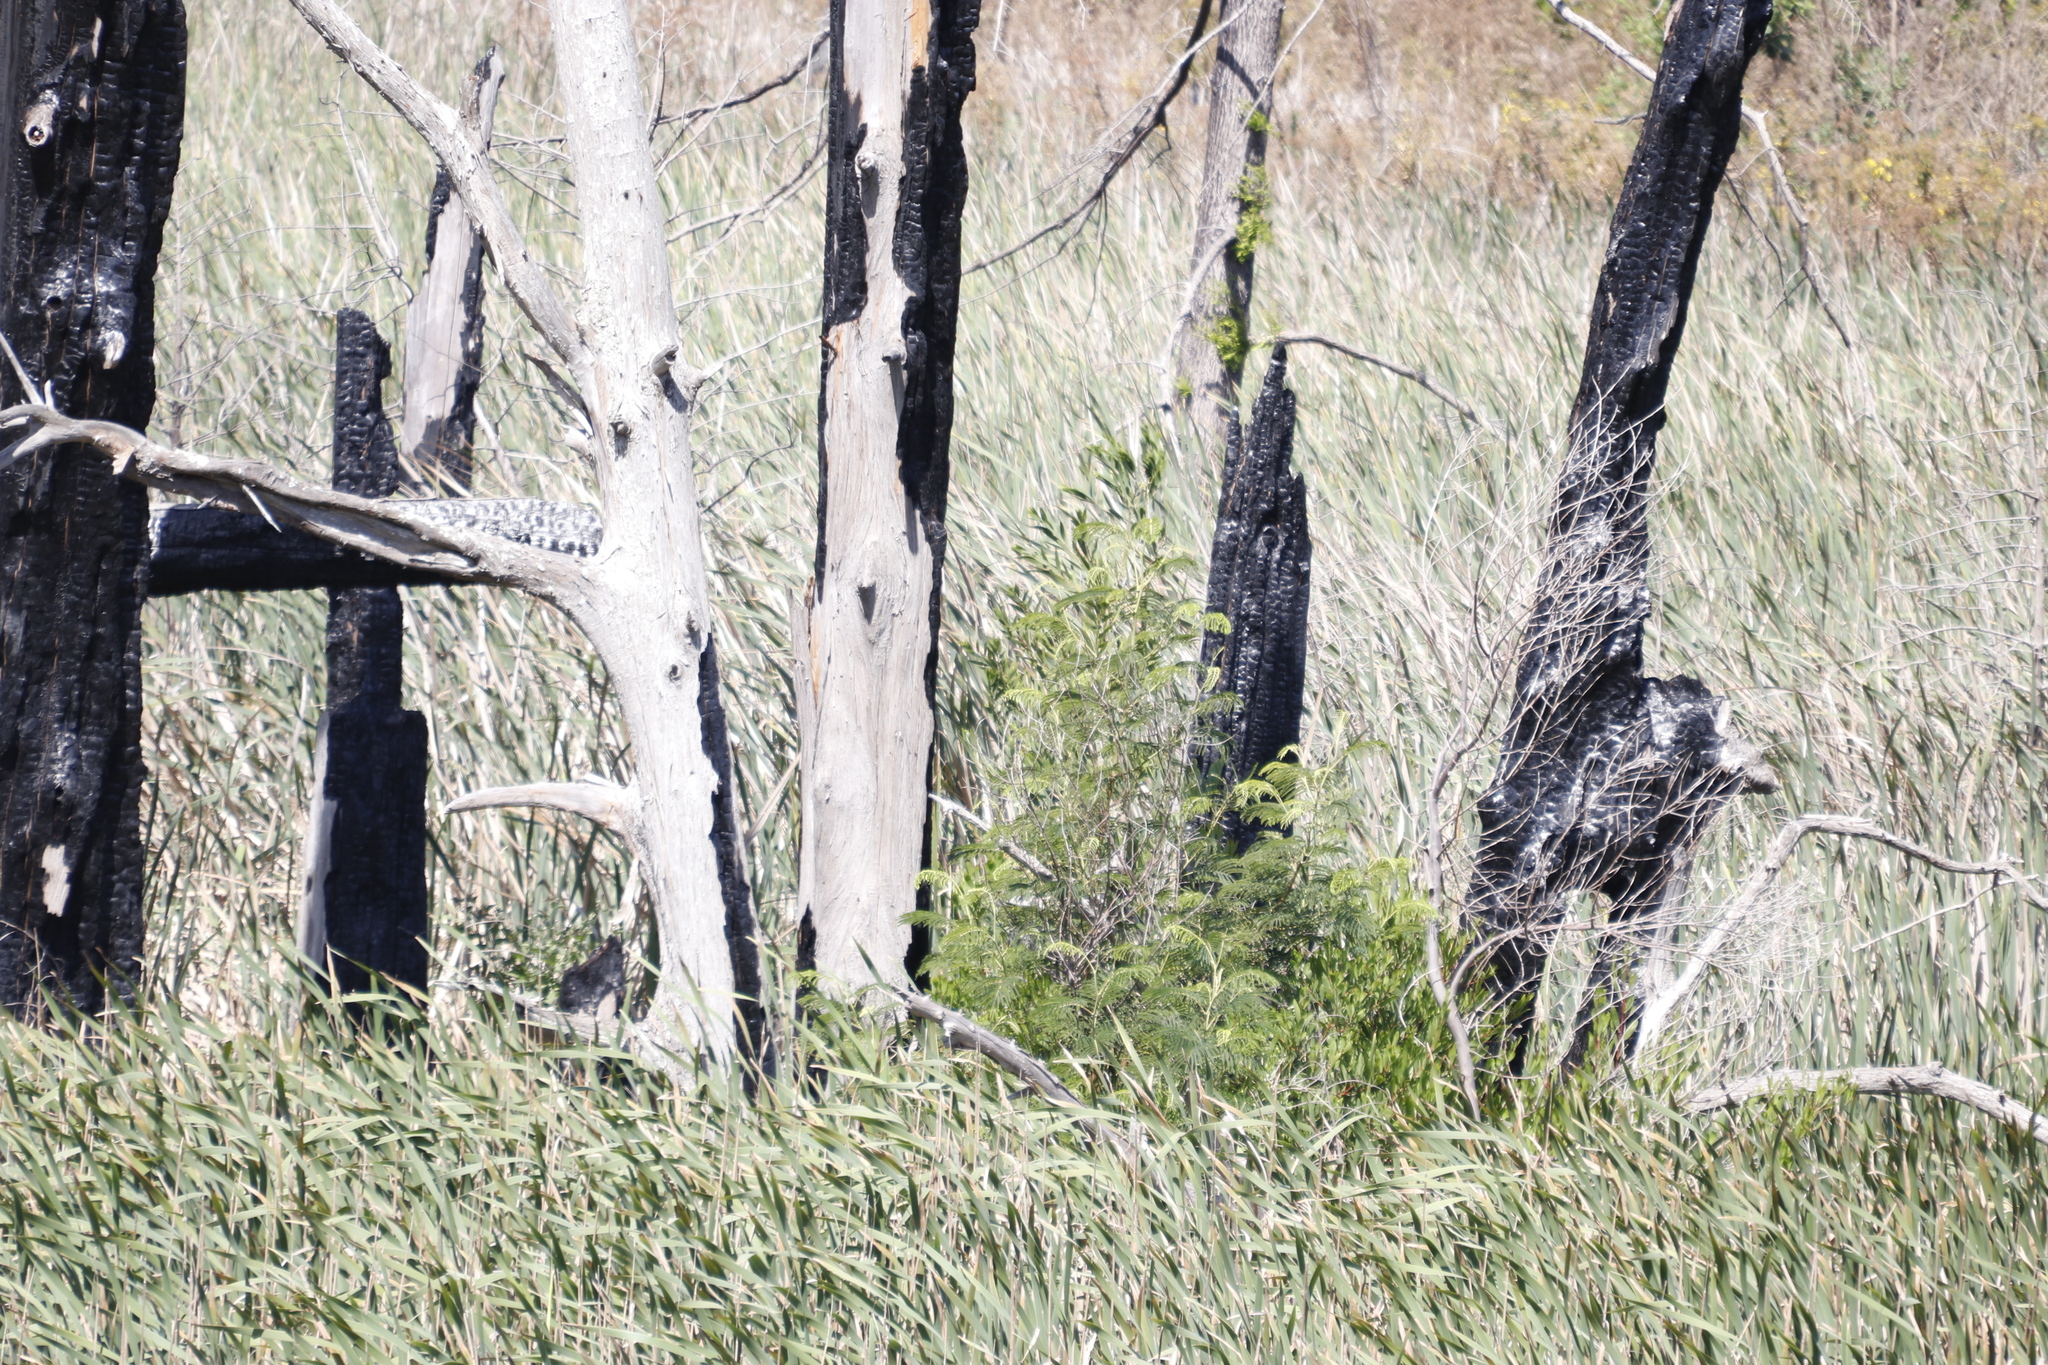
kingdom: Plantae
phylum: Tracheophyta
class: Magnoliopsida
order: Fabales
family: Fabaceae
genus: Paraserianthes
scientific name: Paraserianthes lophantha
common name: Plume albizia
